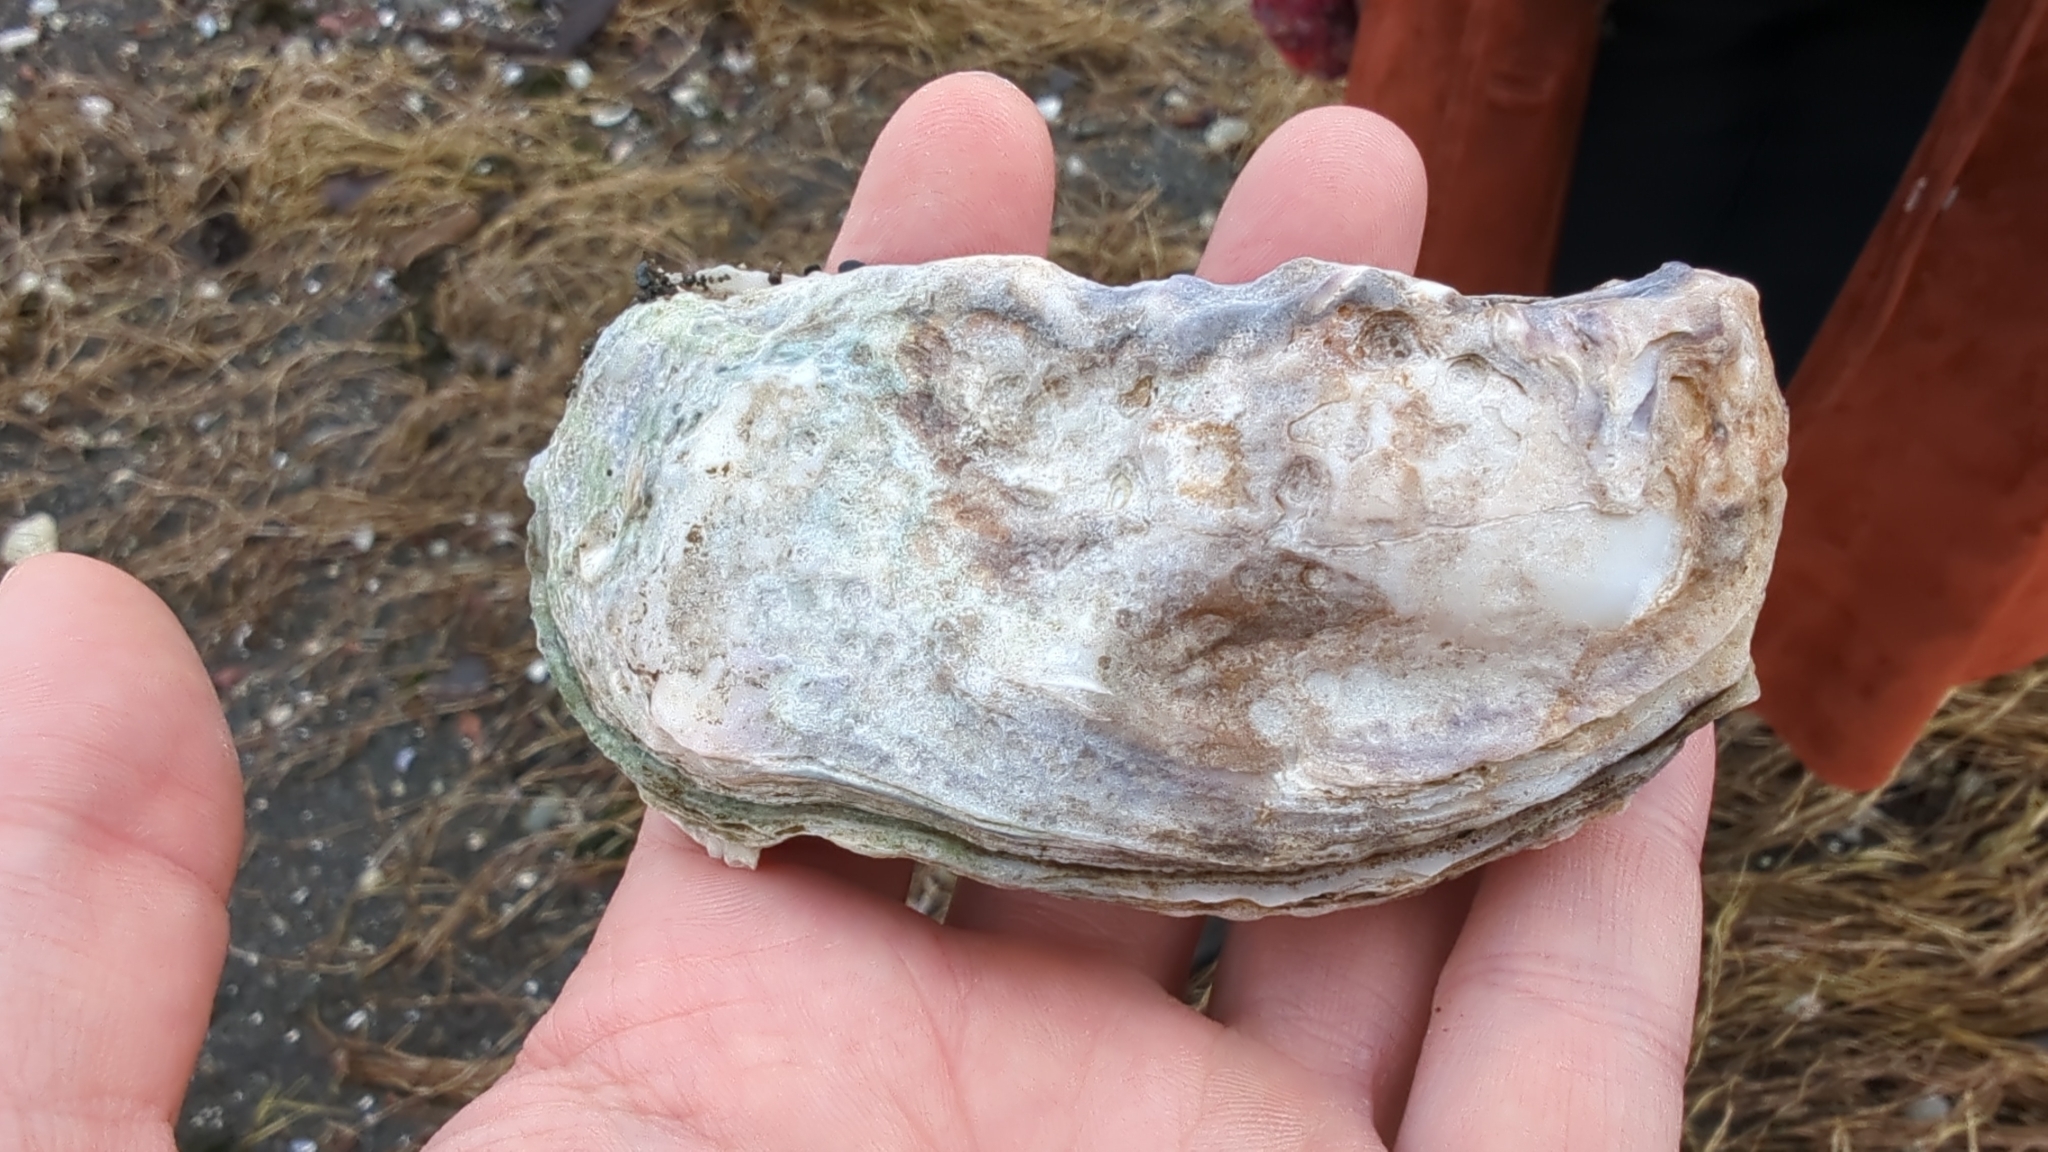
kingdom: Animalia
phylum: Mollusca
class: Bivalvia
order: Ostreida
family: Ostreidae
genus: Magallana
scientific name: Magallana gigas
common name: Pacific oyster
